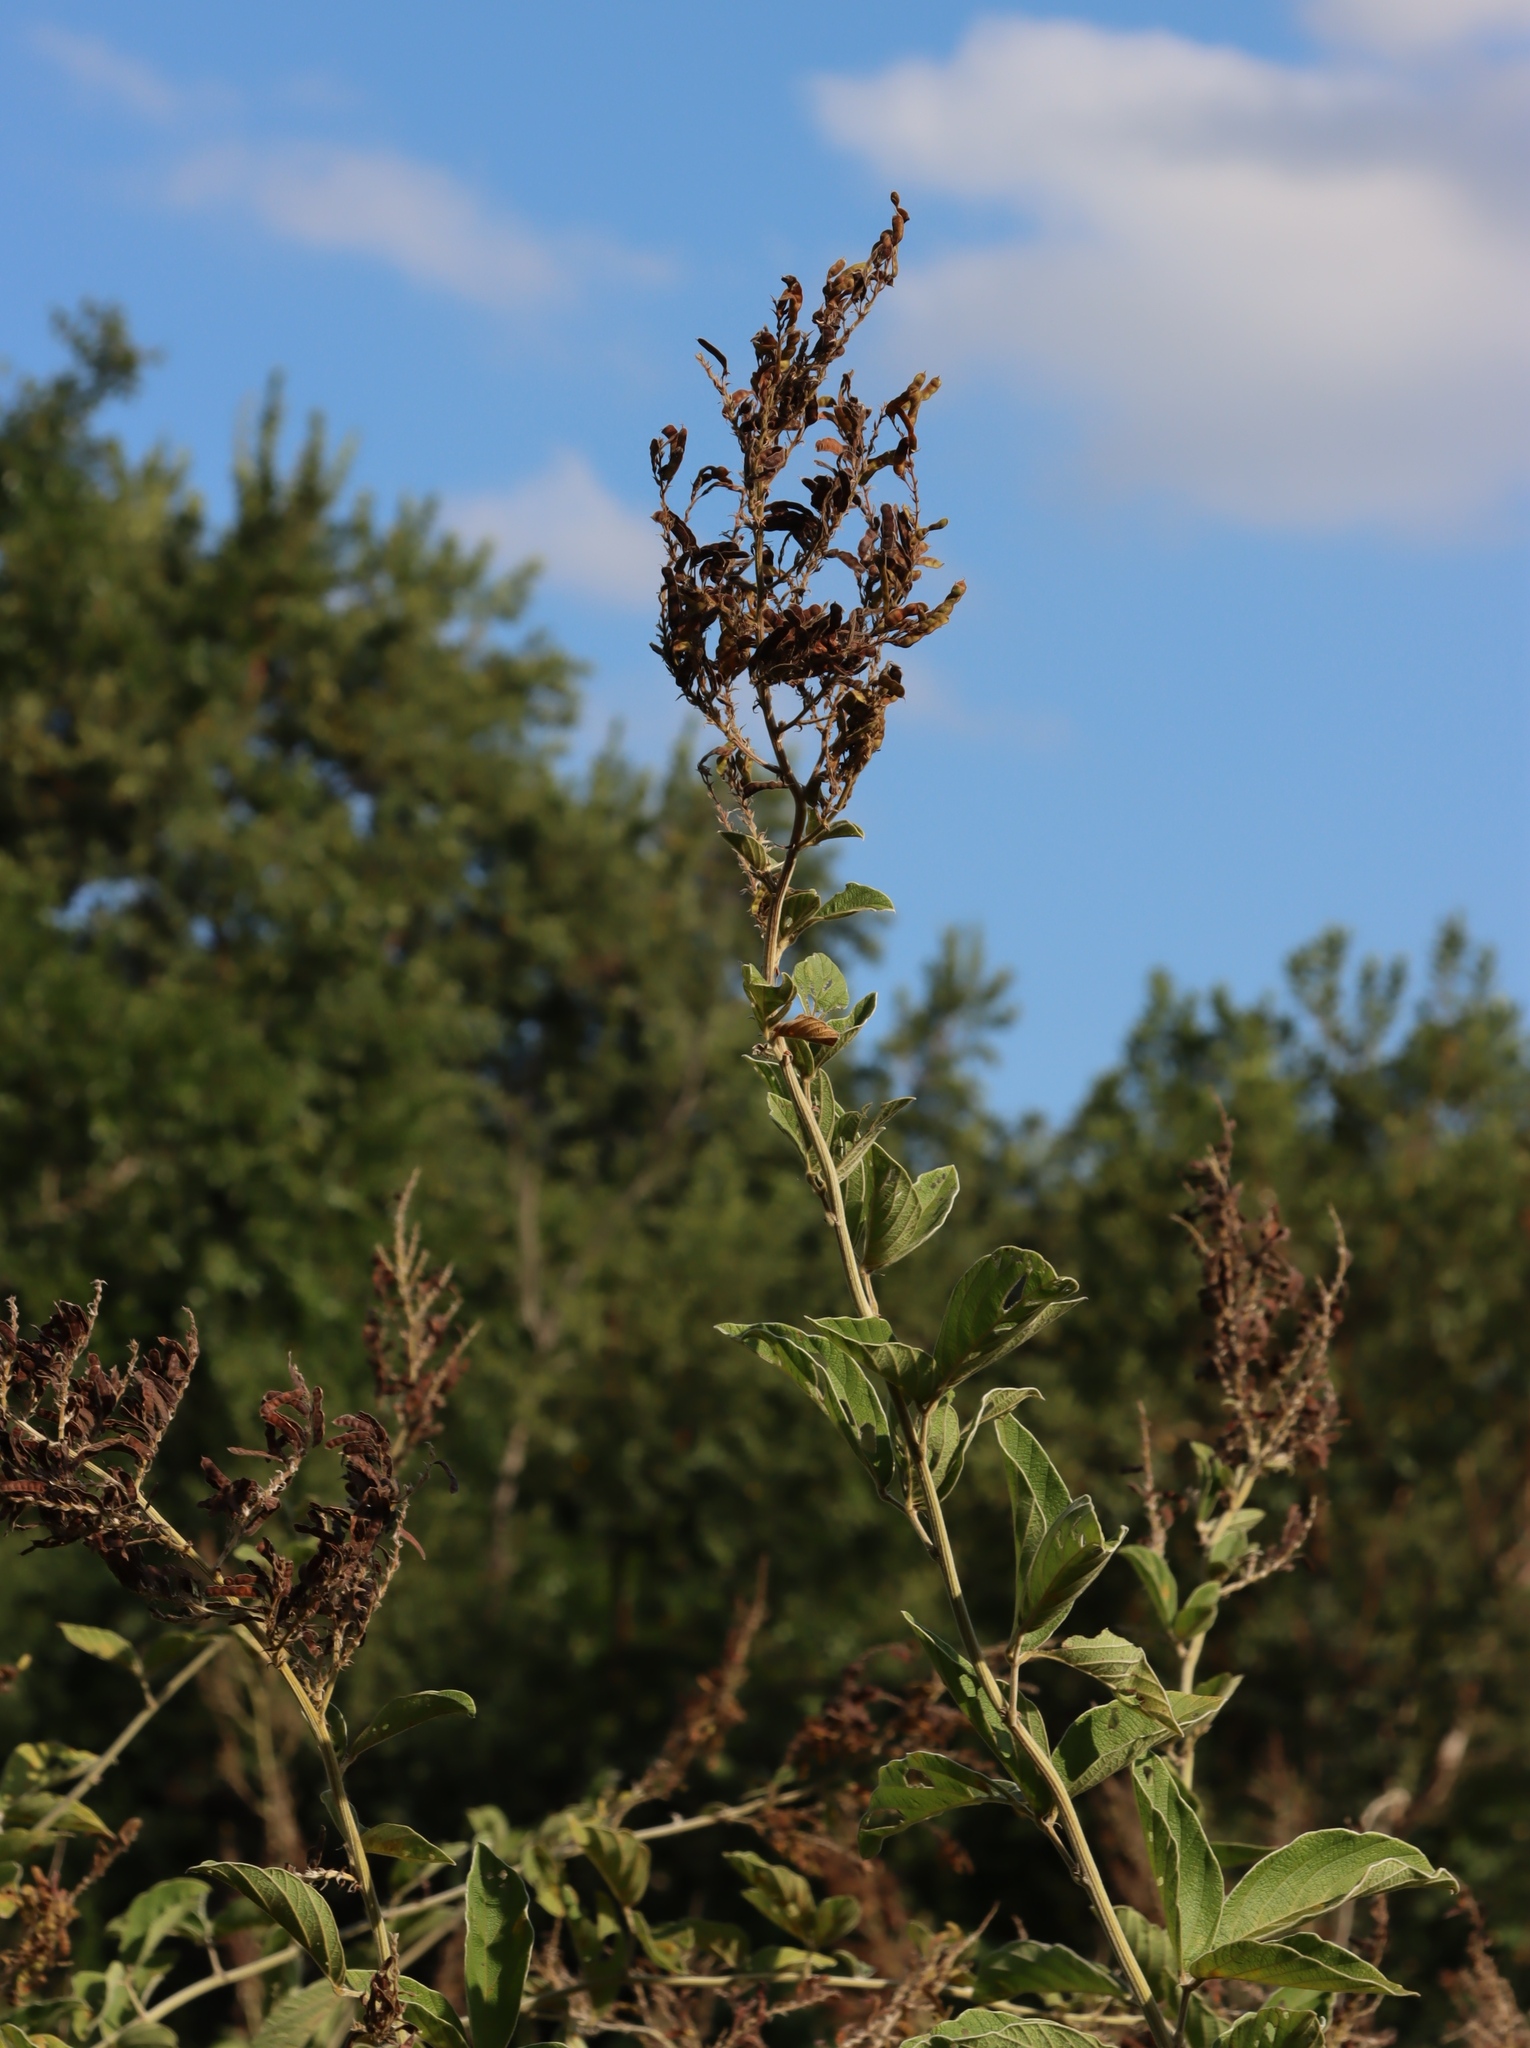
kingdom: Plantae
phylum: Tracheophyta
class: Magnoliopsida
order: Fabales
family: Fabaceae
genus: Pseudarthria
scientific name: Pseudarthria hookeri
